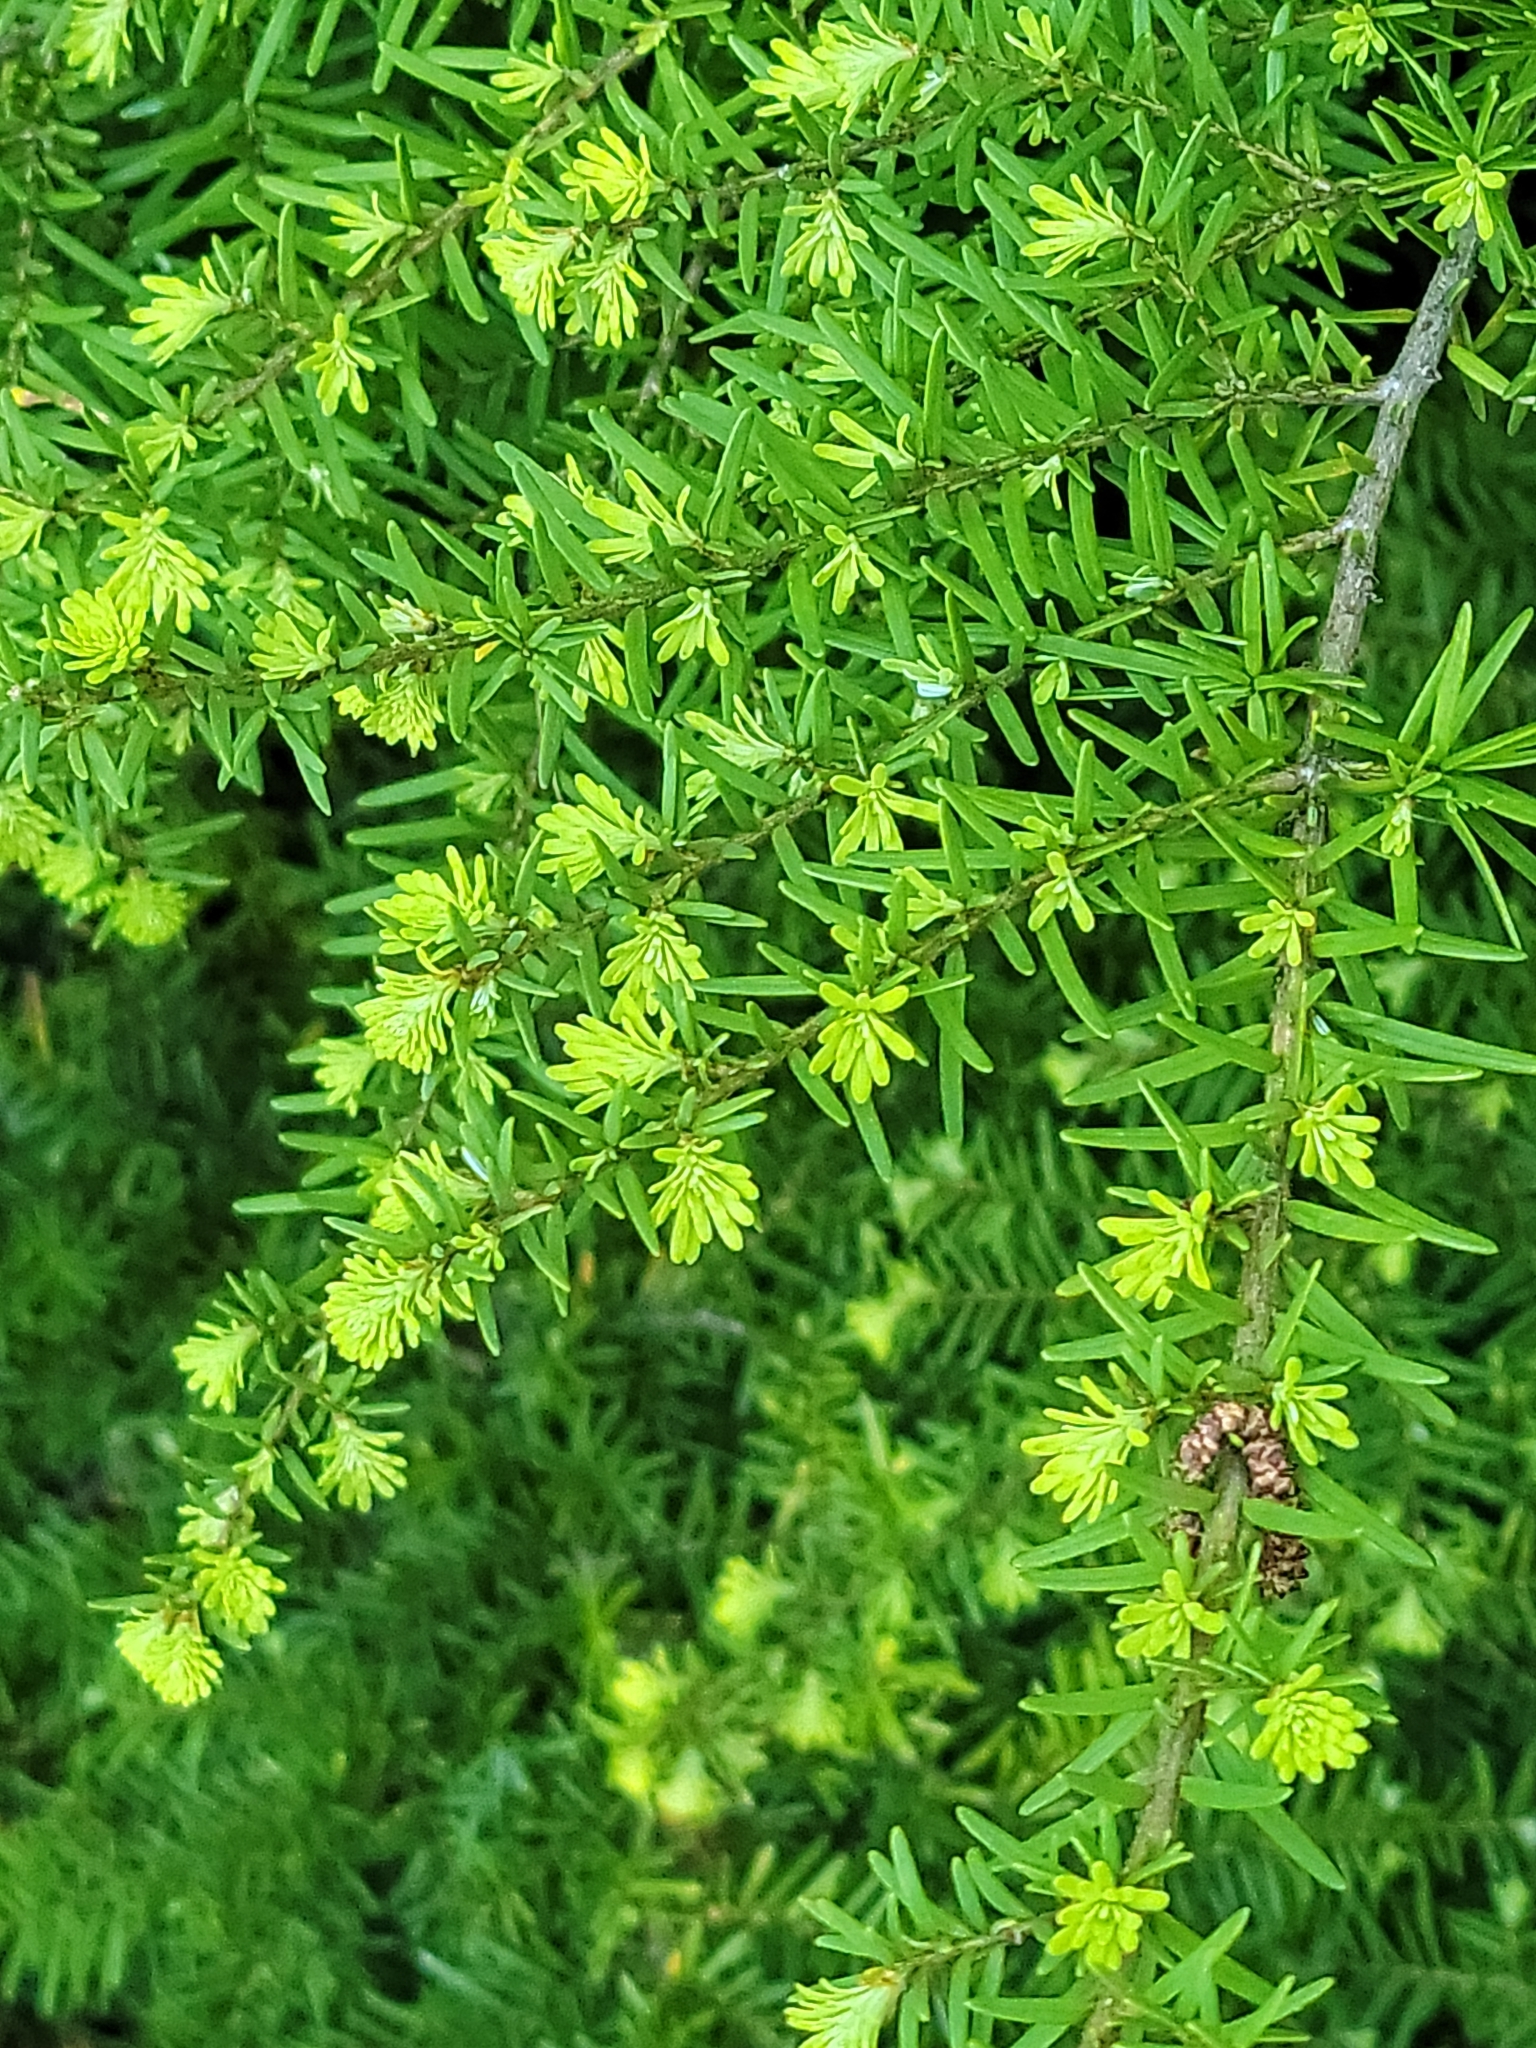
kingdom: Plantae
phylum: Tracheophyta
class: Pinopsida
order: Pinales
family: Pinaceae
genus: Tsuga
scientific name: Tsuga heterophylla
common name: Western hemlock
